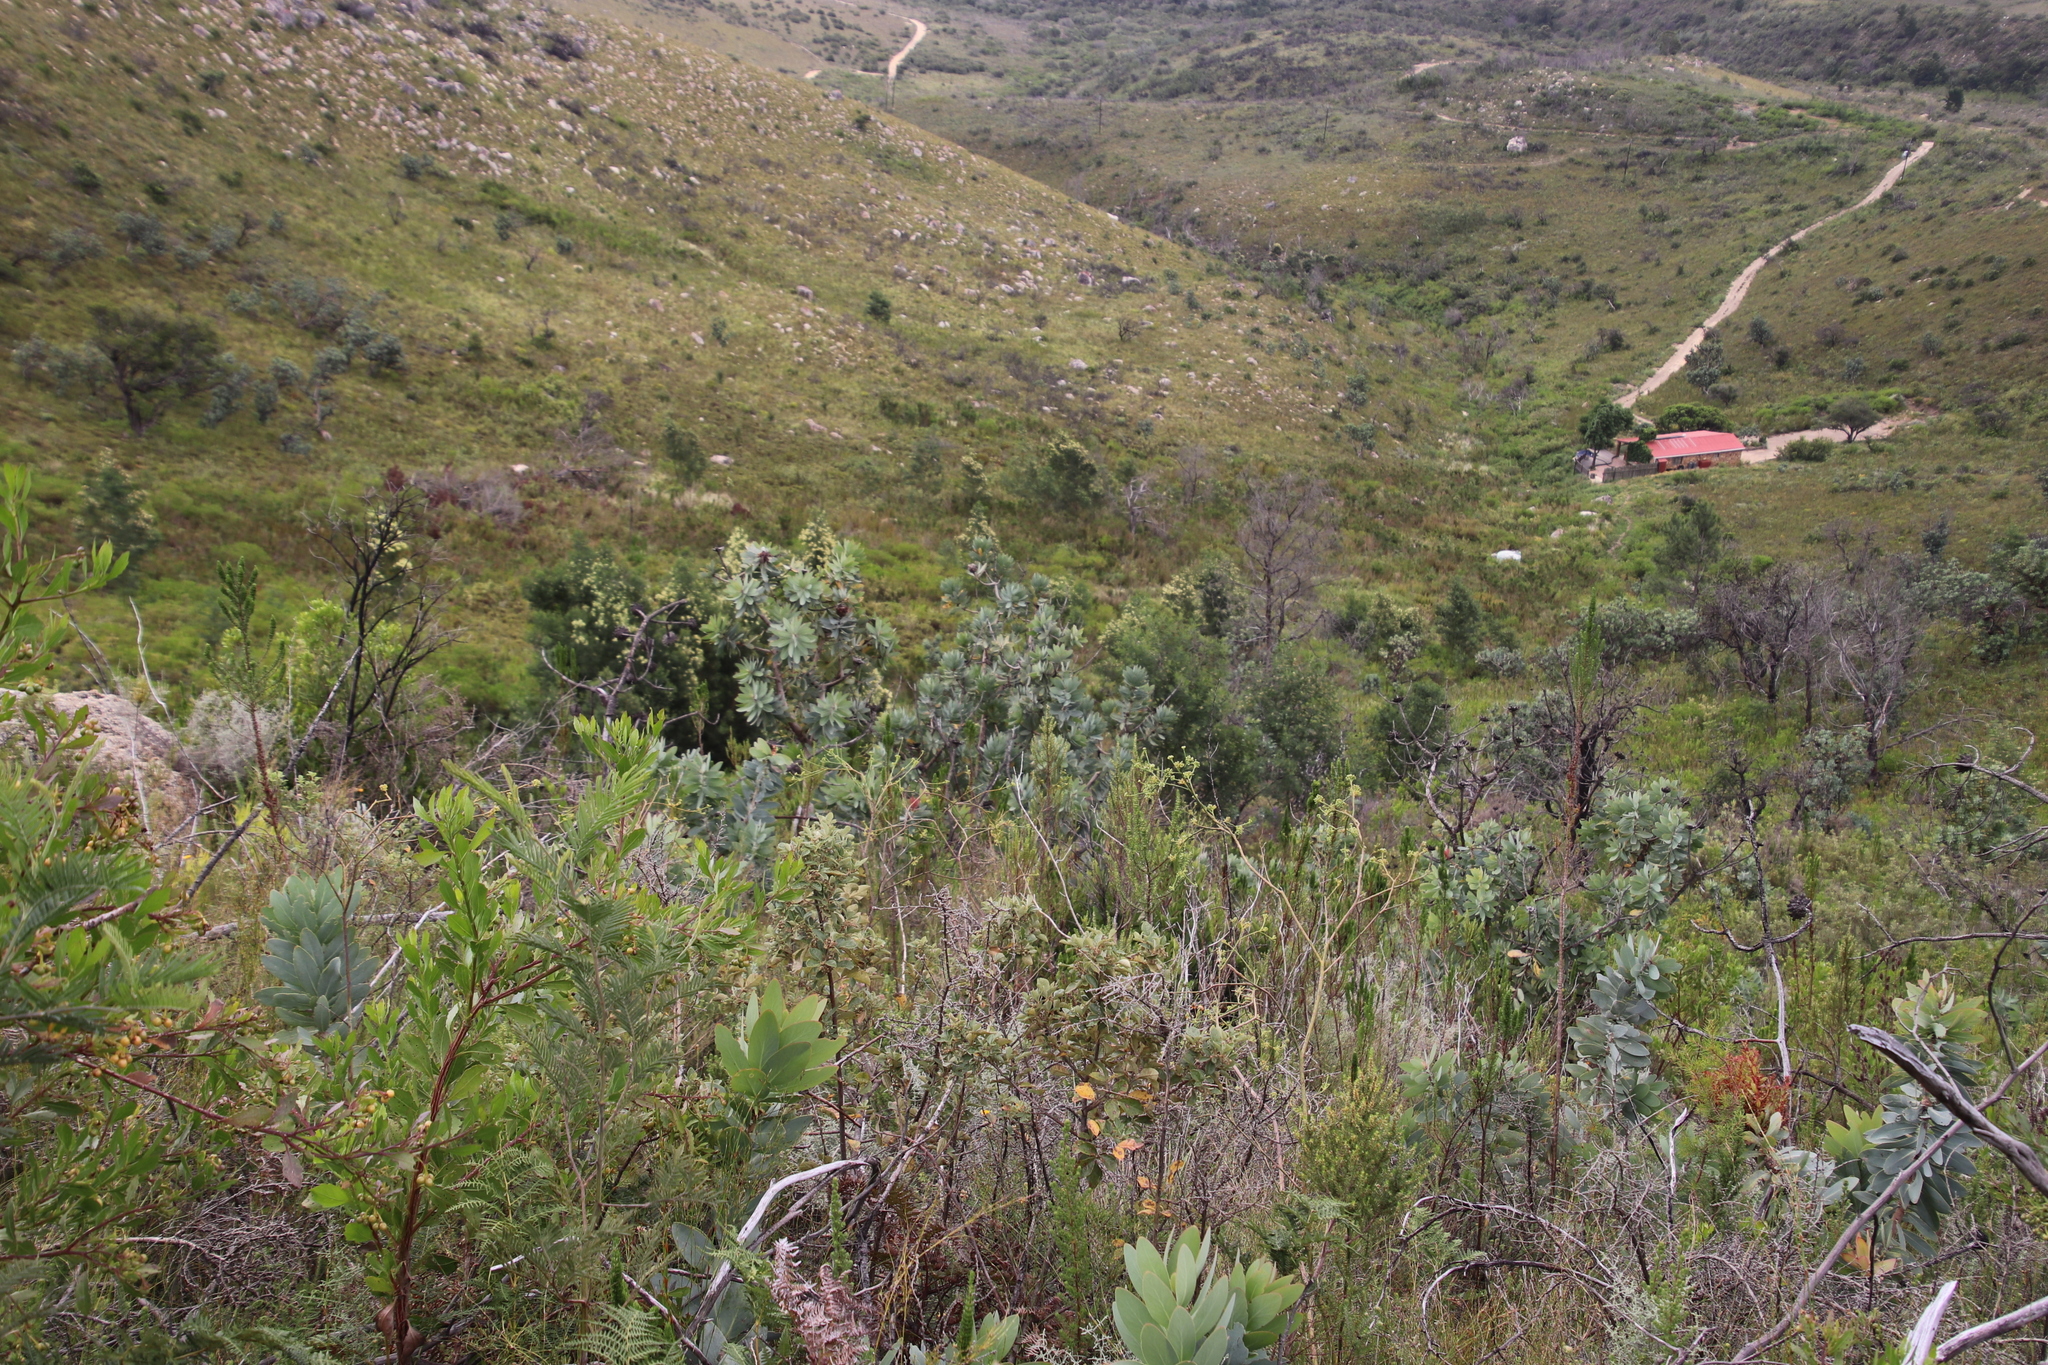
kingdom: Plantae
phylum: Tracheophyta
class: Magnoliopsida
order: Proteales
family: Proteaceae
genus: Protea
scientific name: Protea nitida
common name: Tree protea
